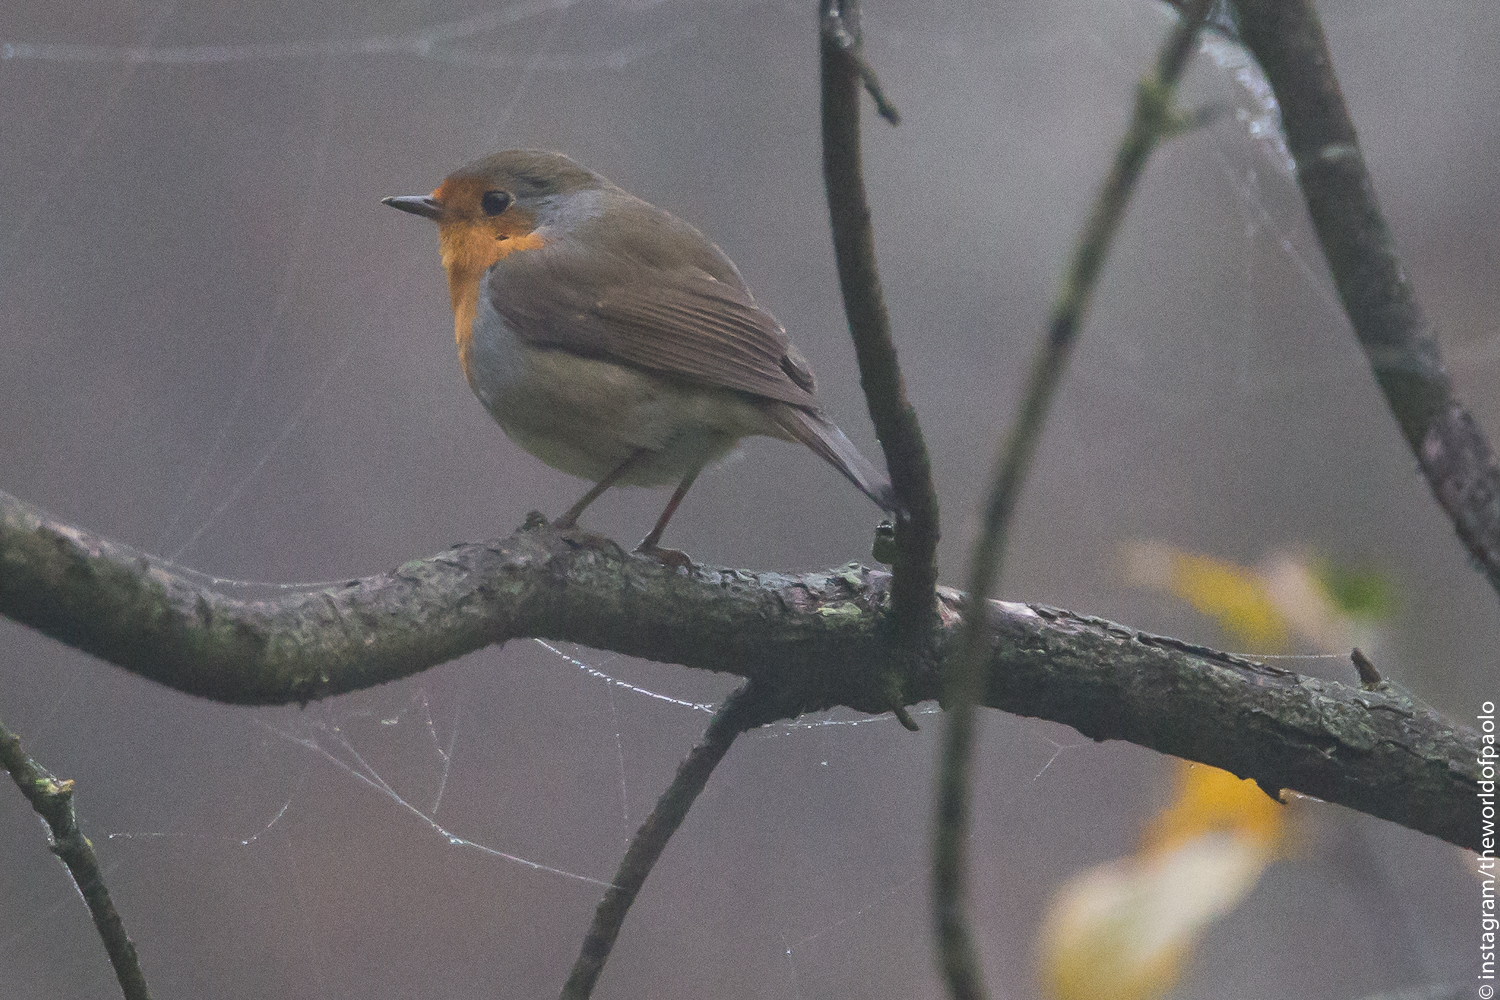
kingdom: Animalia
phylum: Chordata
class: Aves
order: Passeriformes
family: Muscicapidae
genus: Erithacus
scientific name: Erithacus rubecula
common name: European robin
